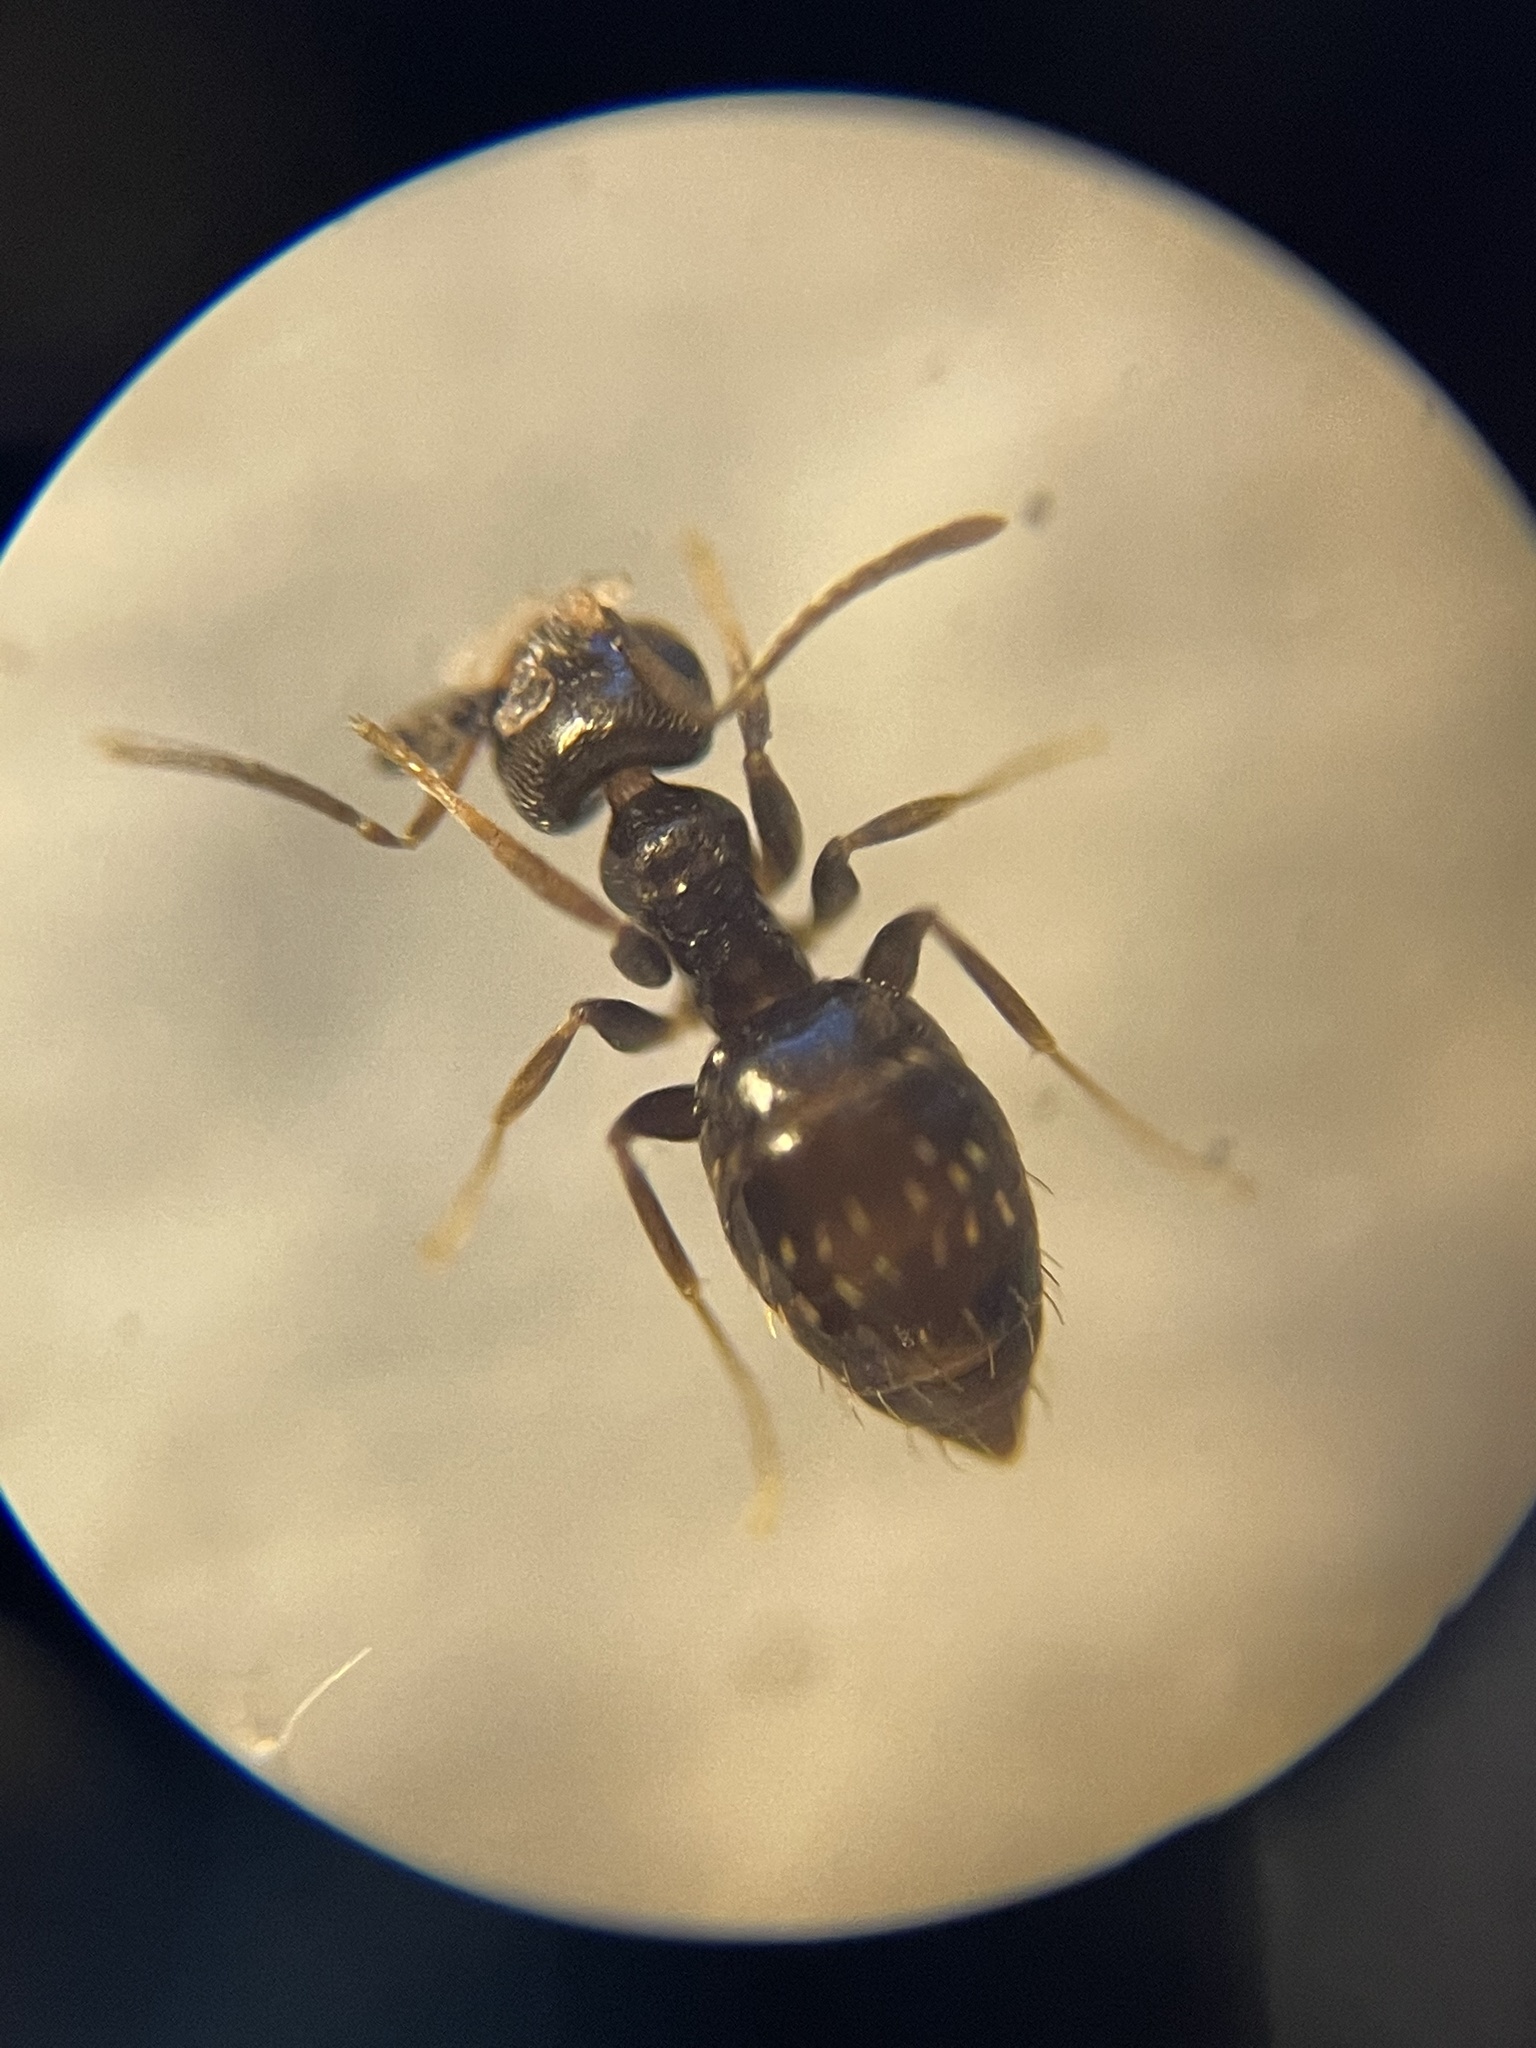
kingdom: Animalia
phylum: Arthropoda
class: Insecta
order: Hymenoptera
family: Formicidae
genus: Brachymyrmex
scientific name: Brachymyrmex patagonicus
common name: Dark rover ant
